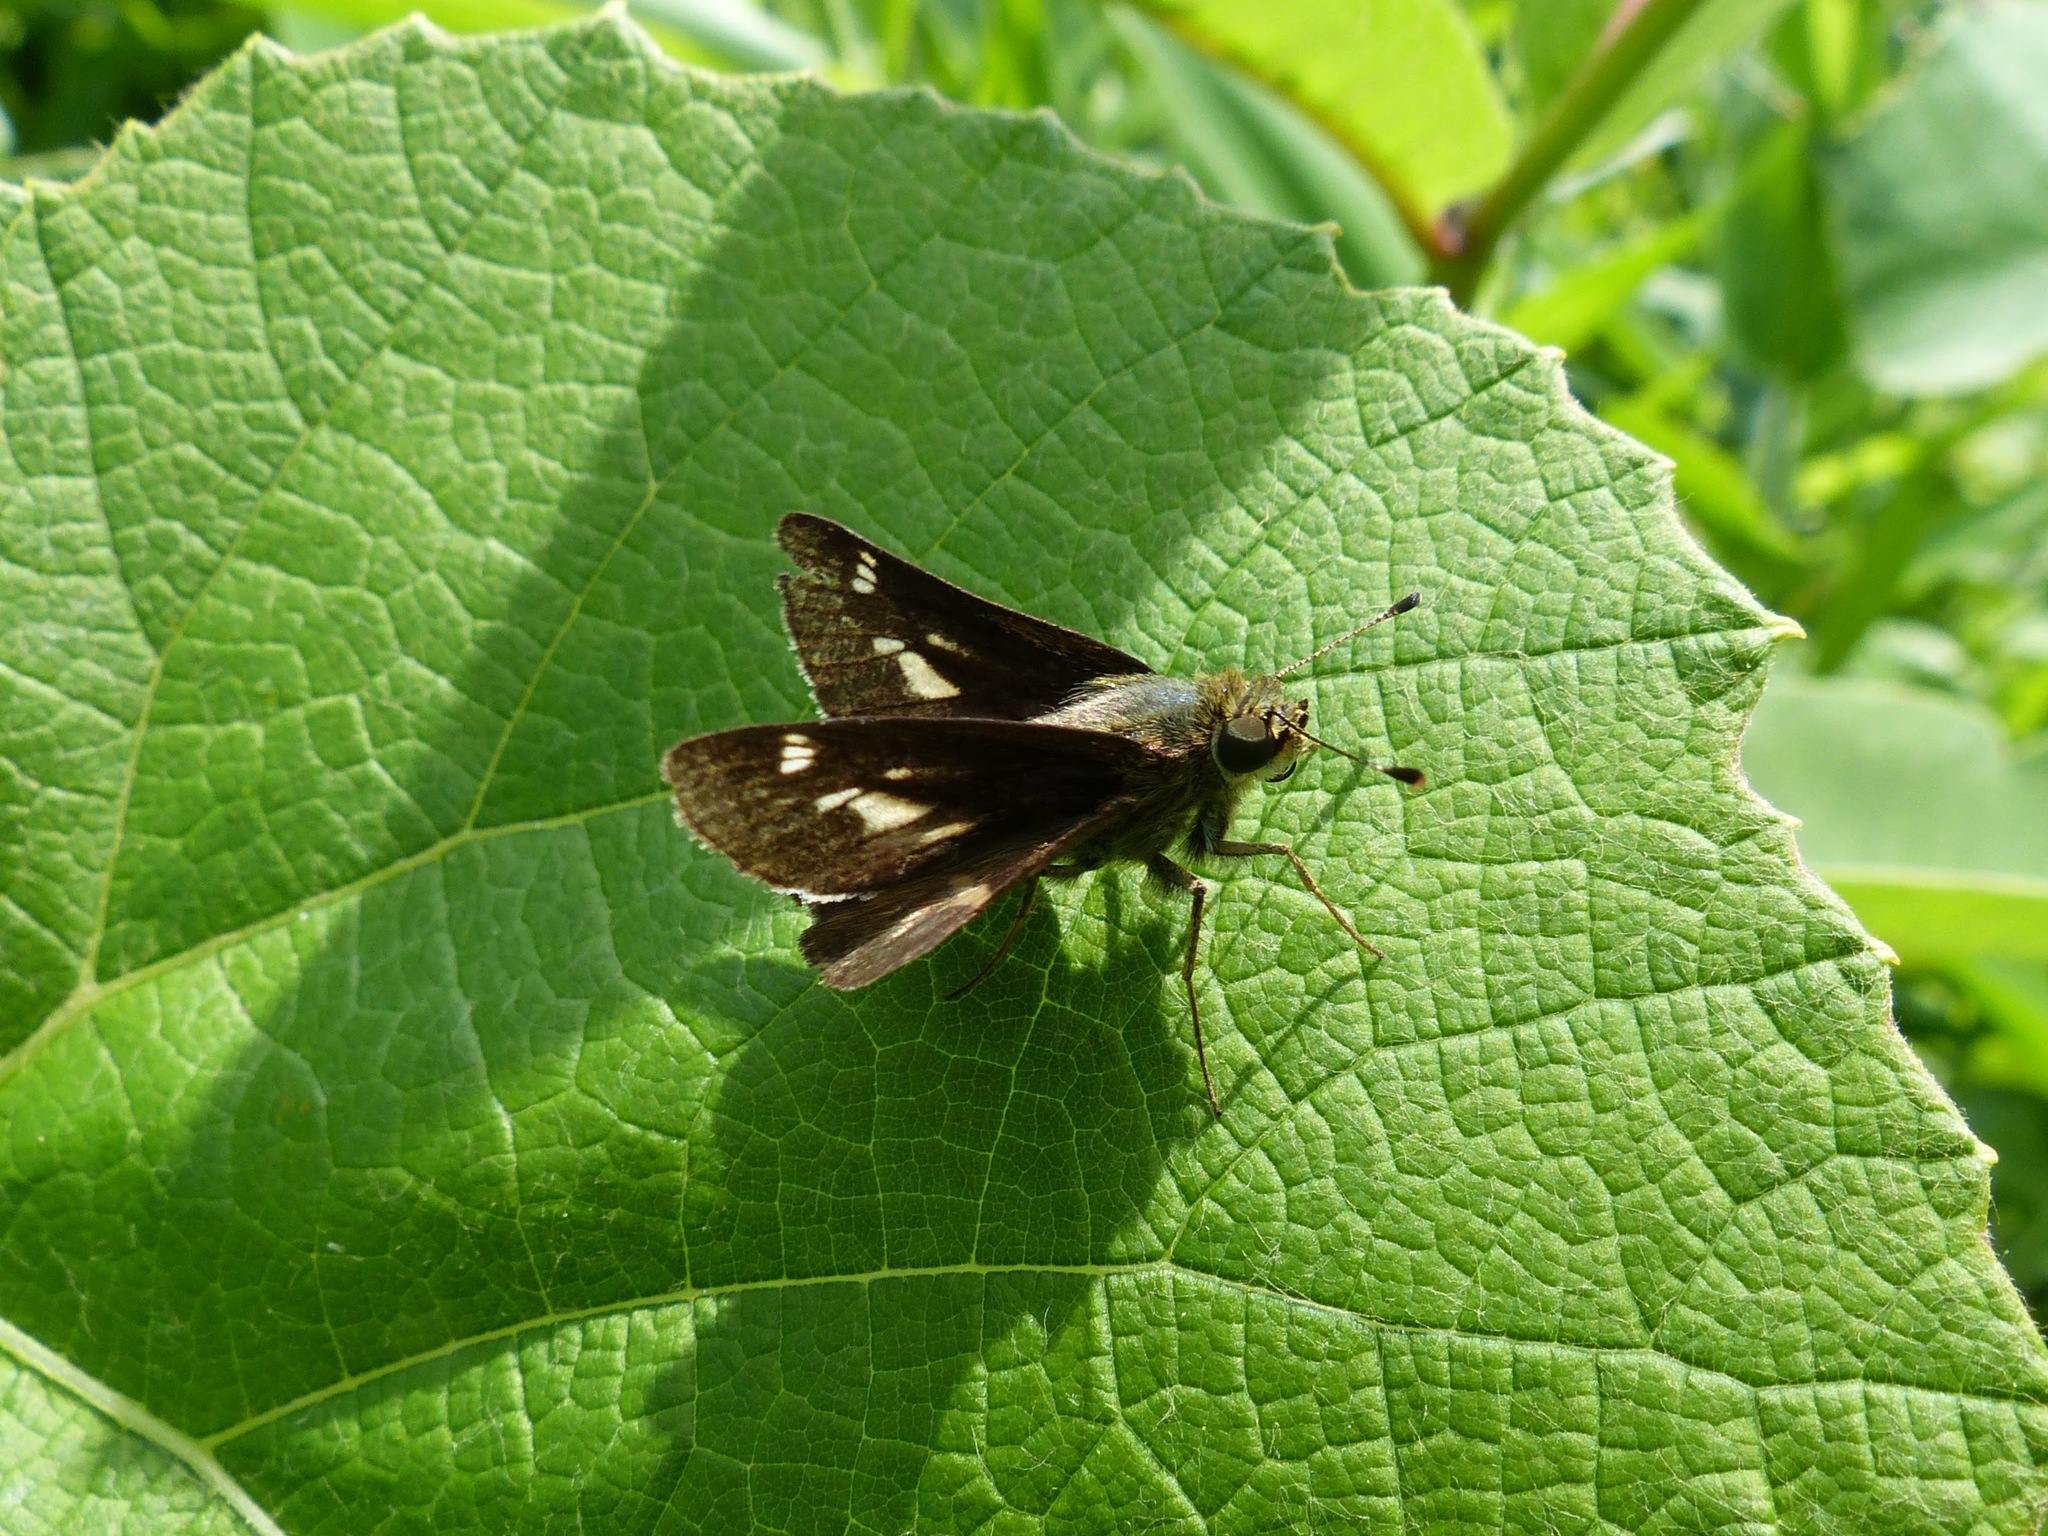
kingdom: Animalia
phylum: Arthropoda
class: Insecta
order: Lepidoptera
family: Hesperiidae
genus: Vernia
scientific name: Vernia verna
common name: Little glassywing
